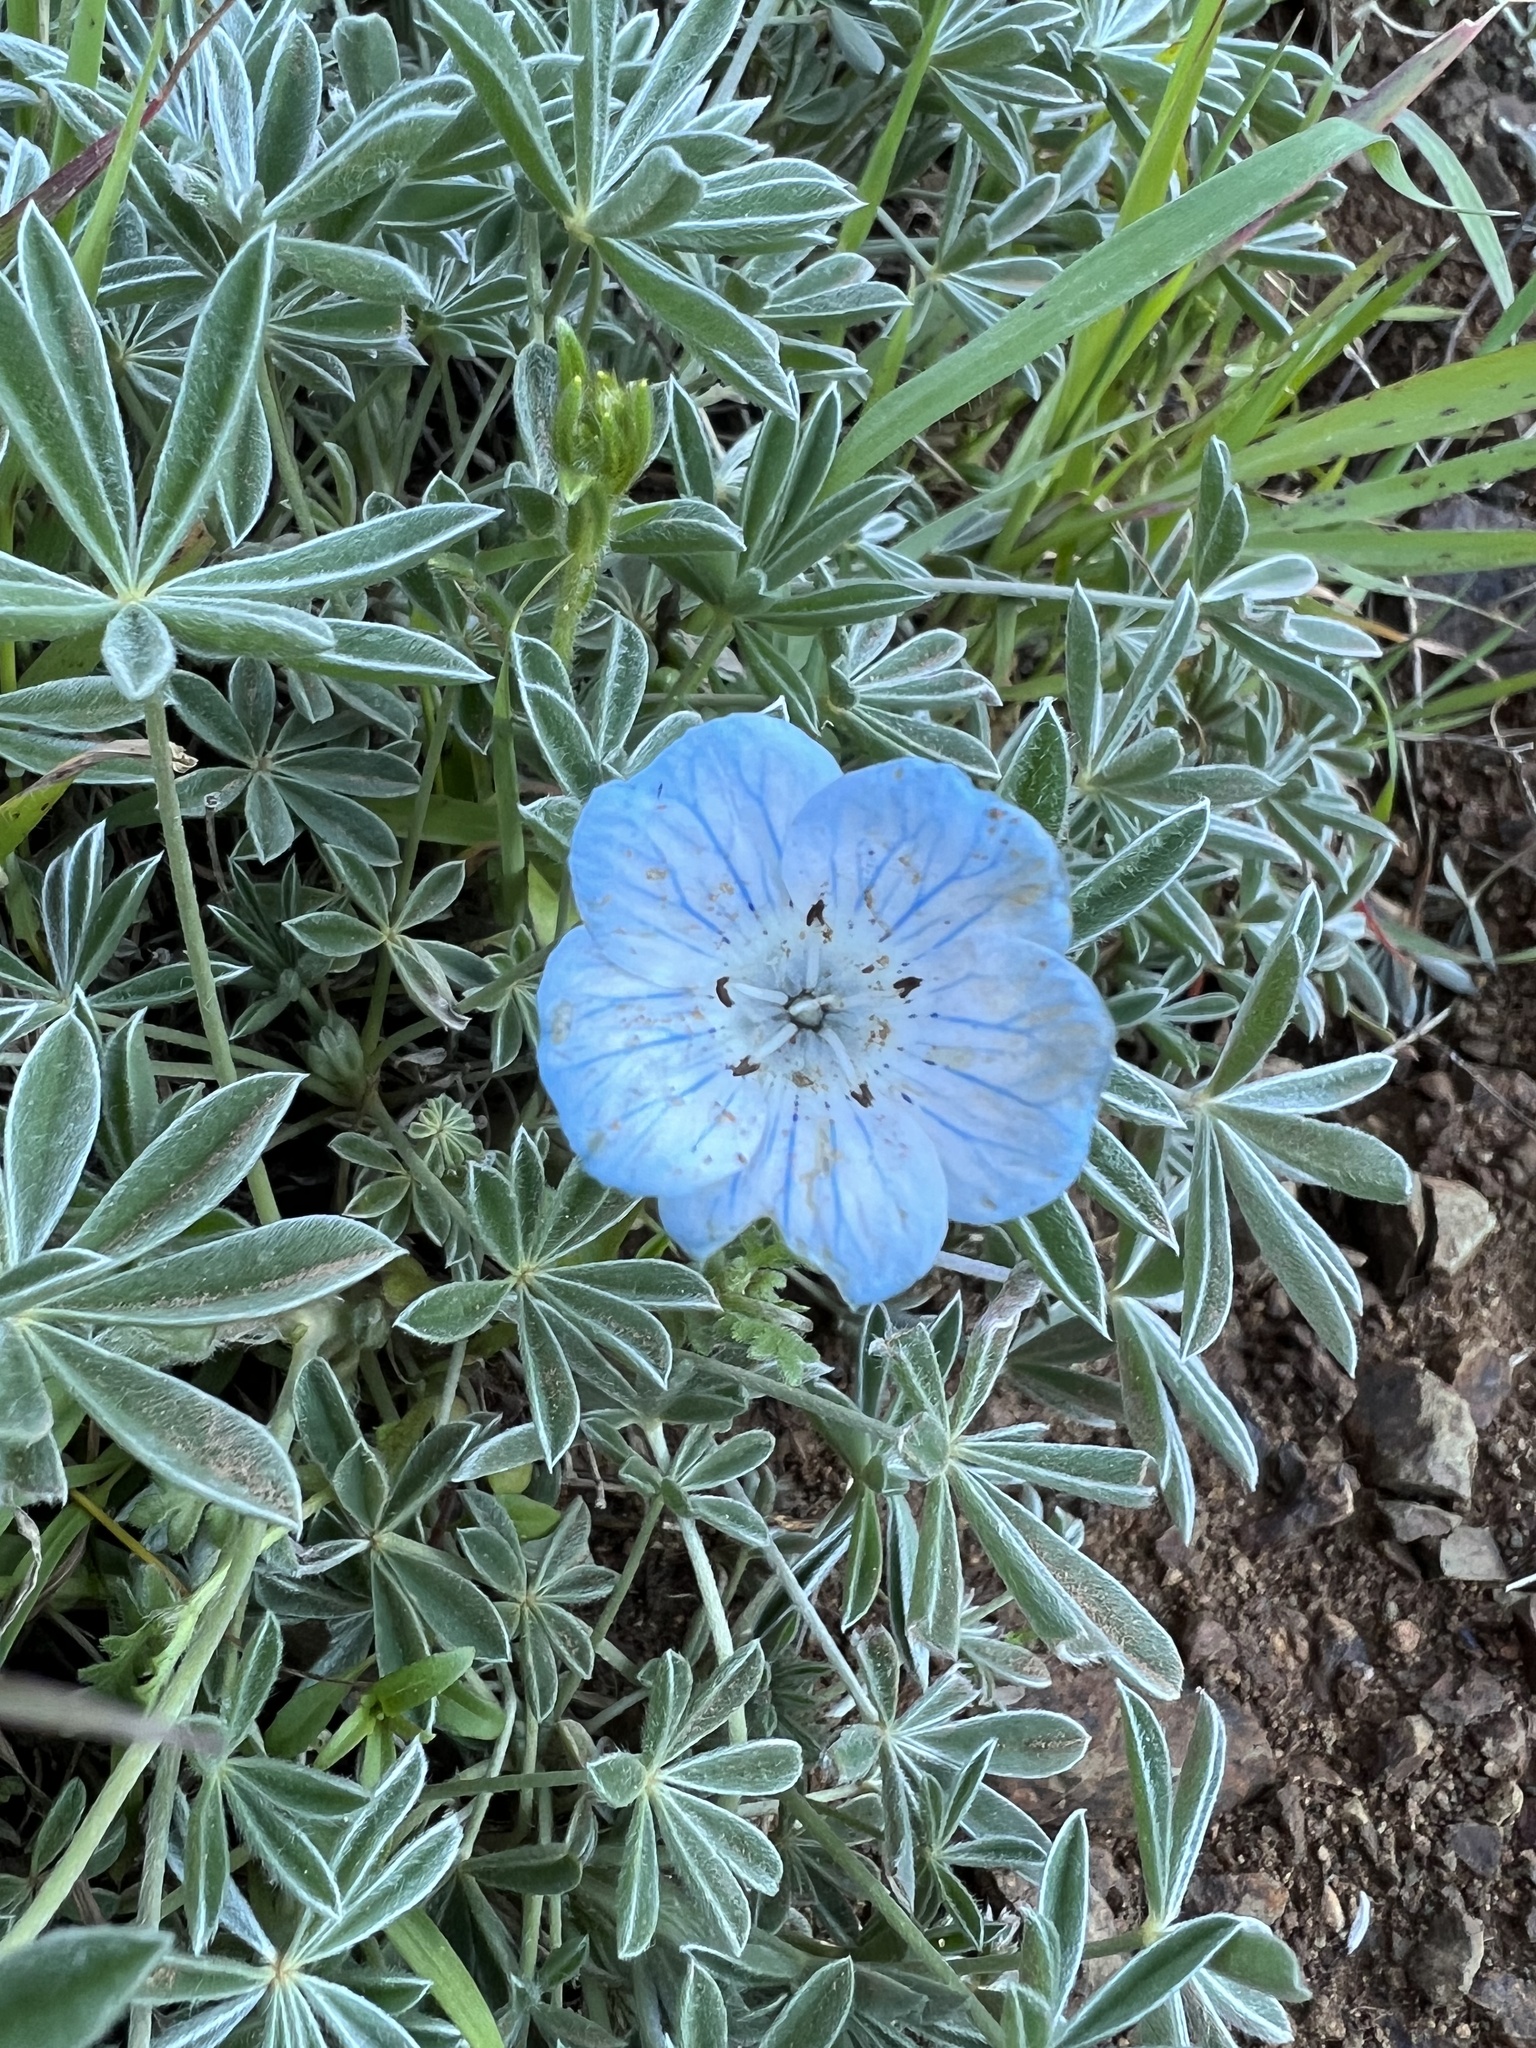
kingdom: Plantae
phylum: Tracheophyta
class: Magnoliopsida
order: Boraginales
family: Hydrophyllaceae
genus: Nemophila
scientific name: Nemophila menziesii
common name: Baby's-blue-eyes
